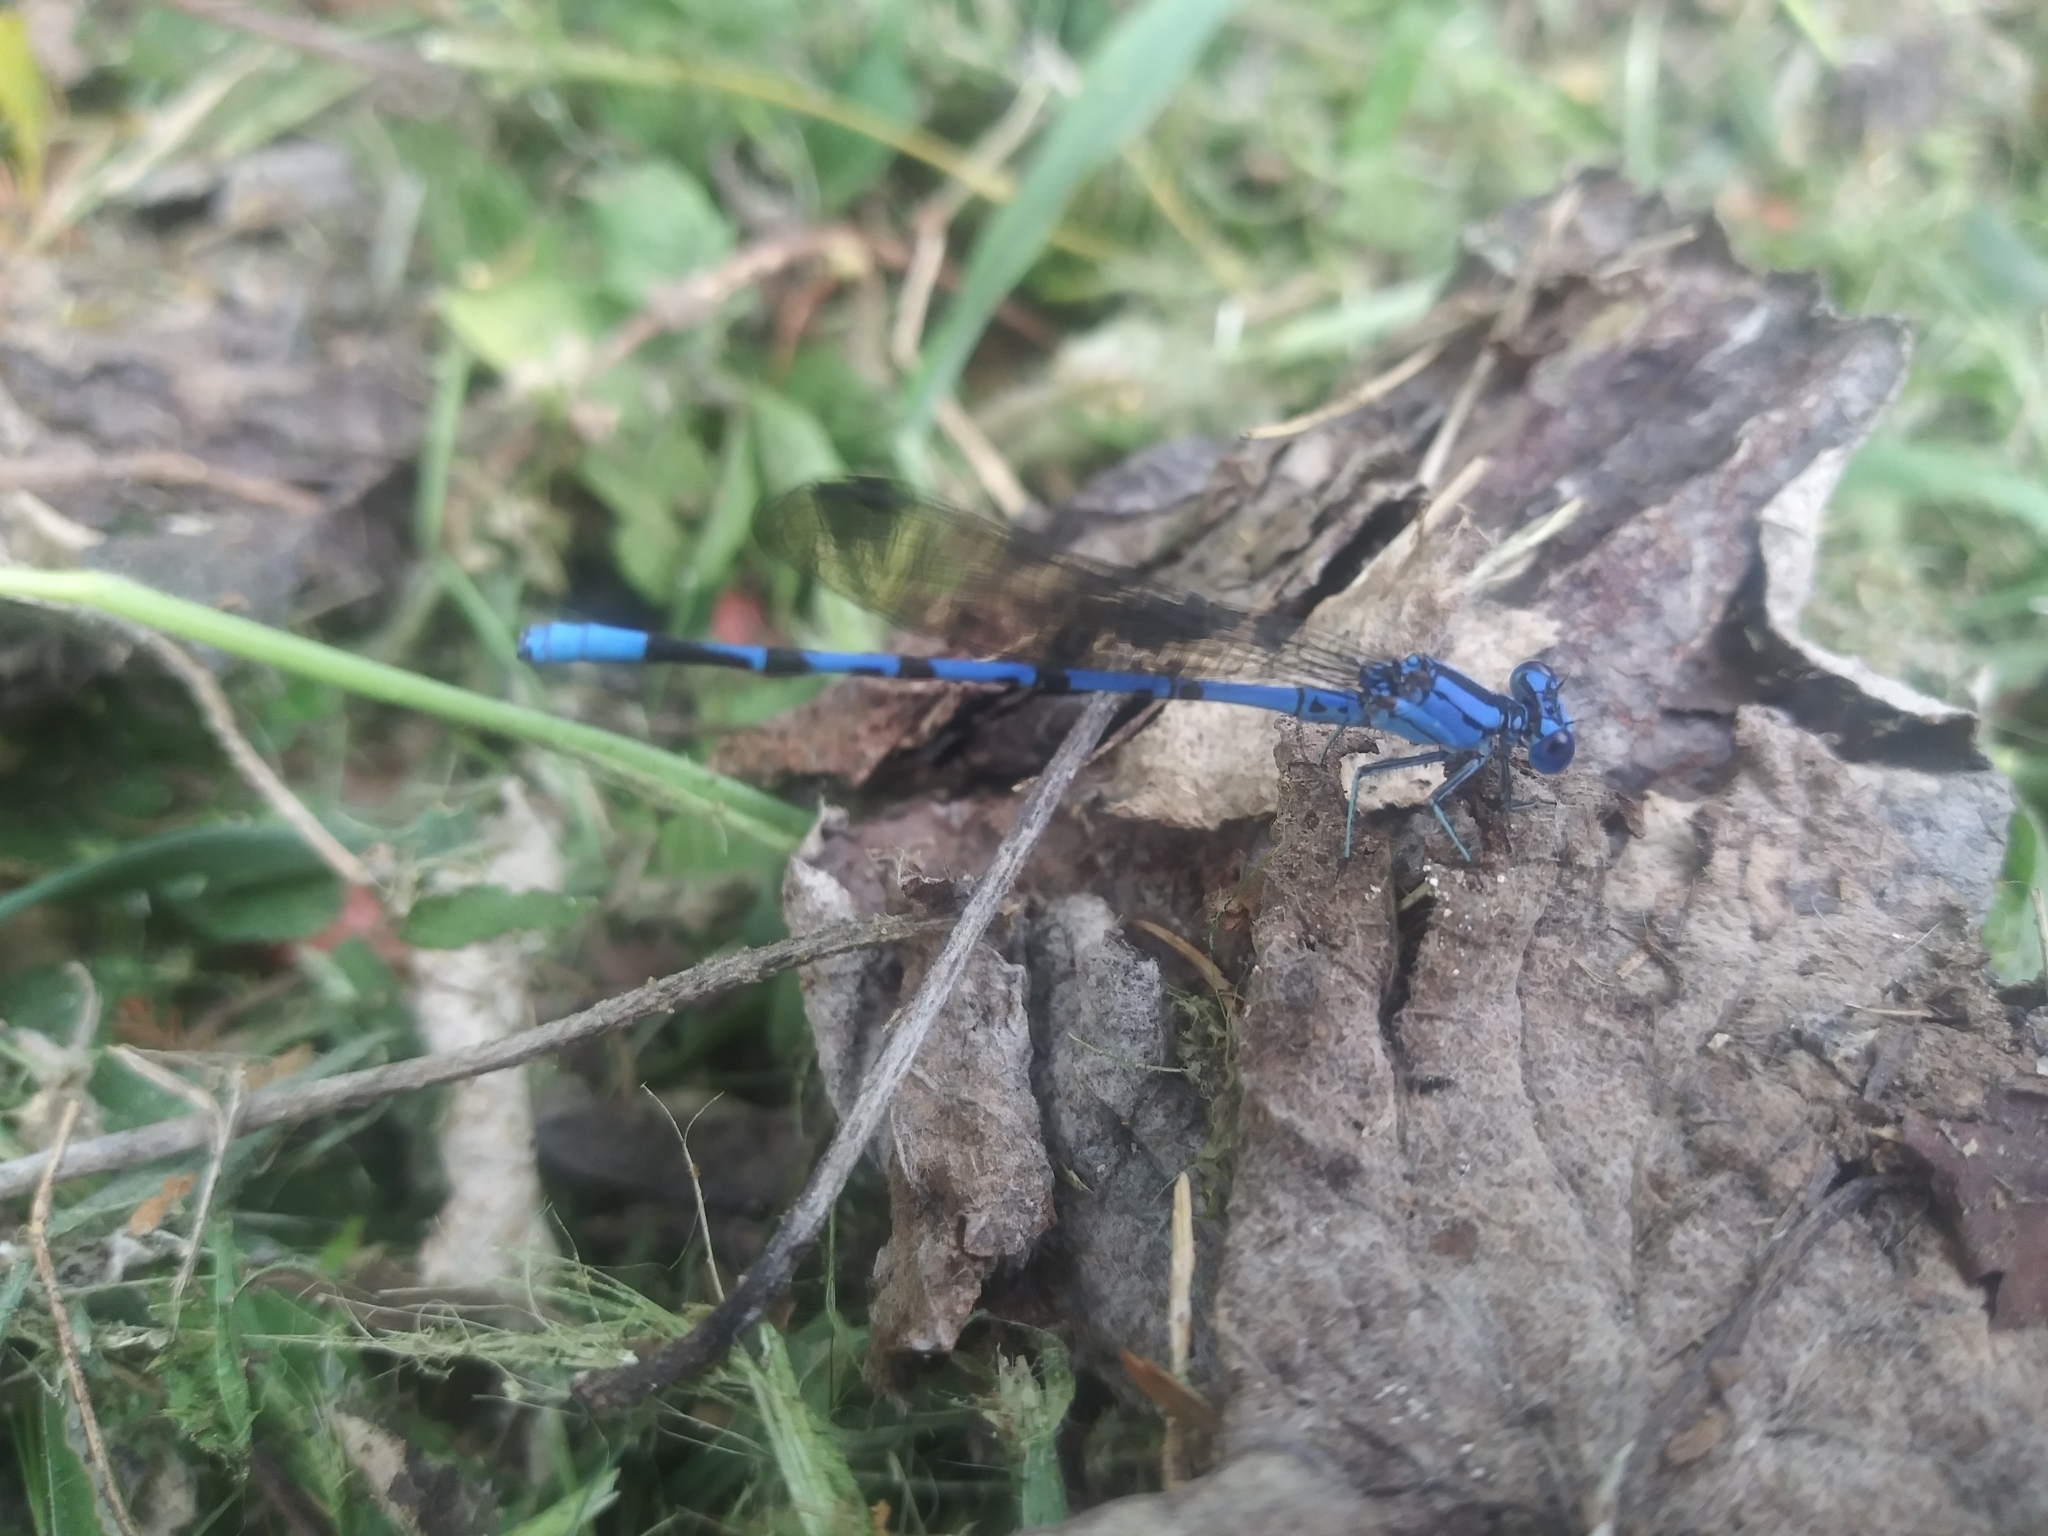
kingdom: Animalia
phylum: Arthropoda
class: Insecta
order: Odonata
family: Coenagrionidae
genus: Argia
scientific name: Argia funebris
